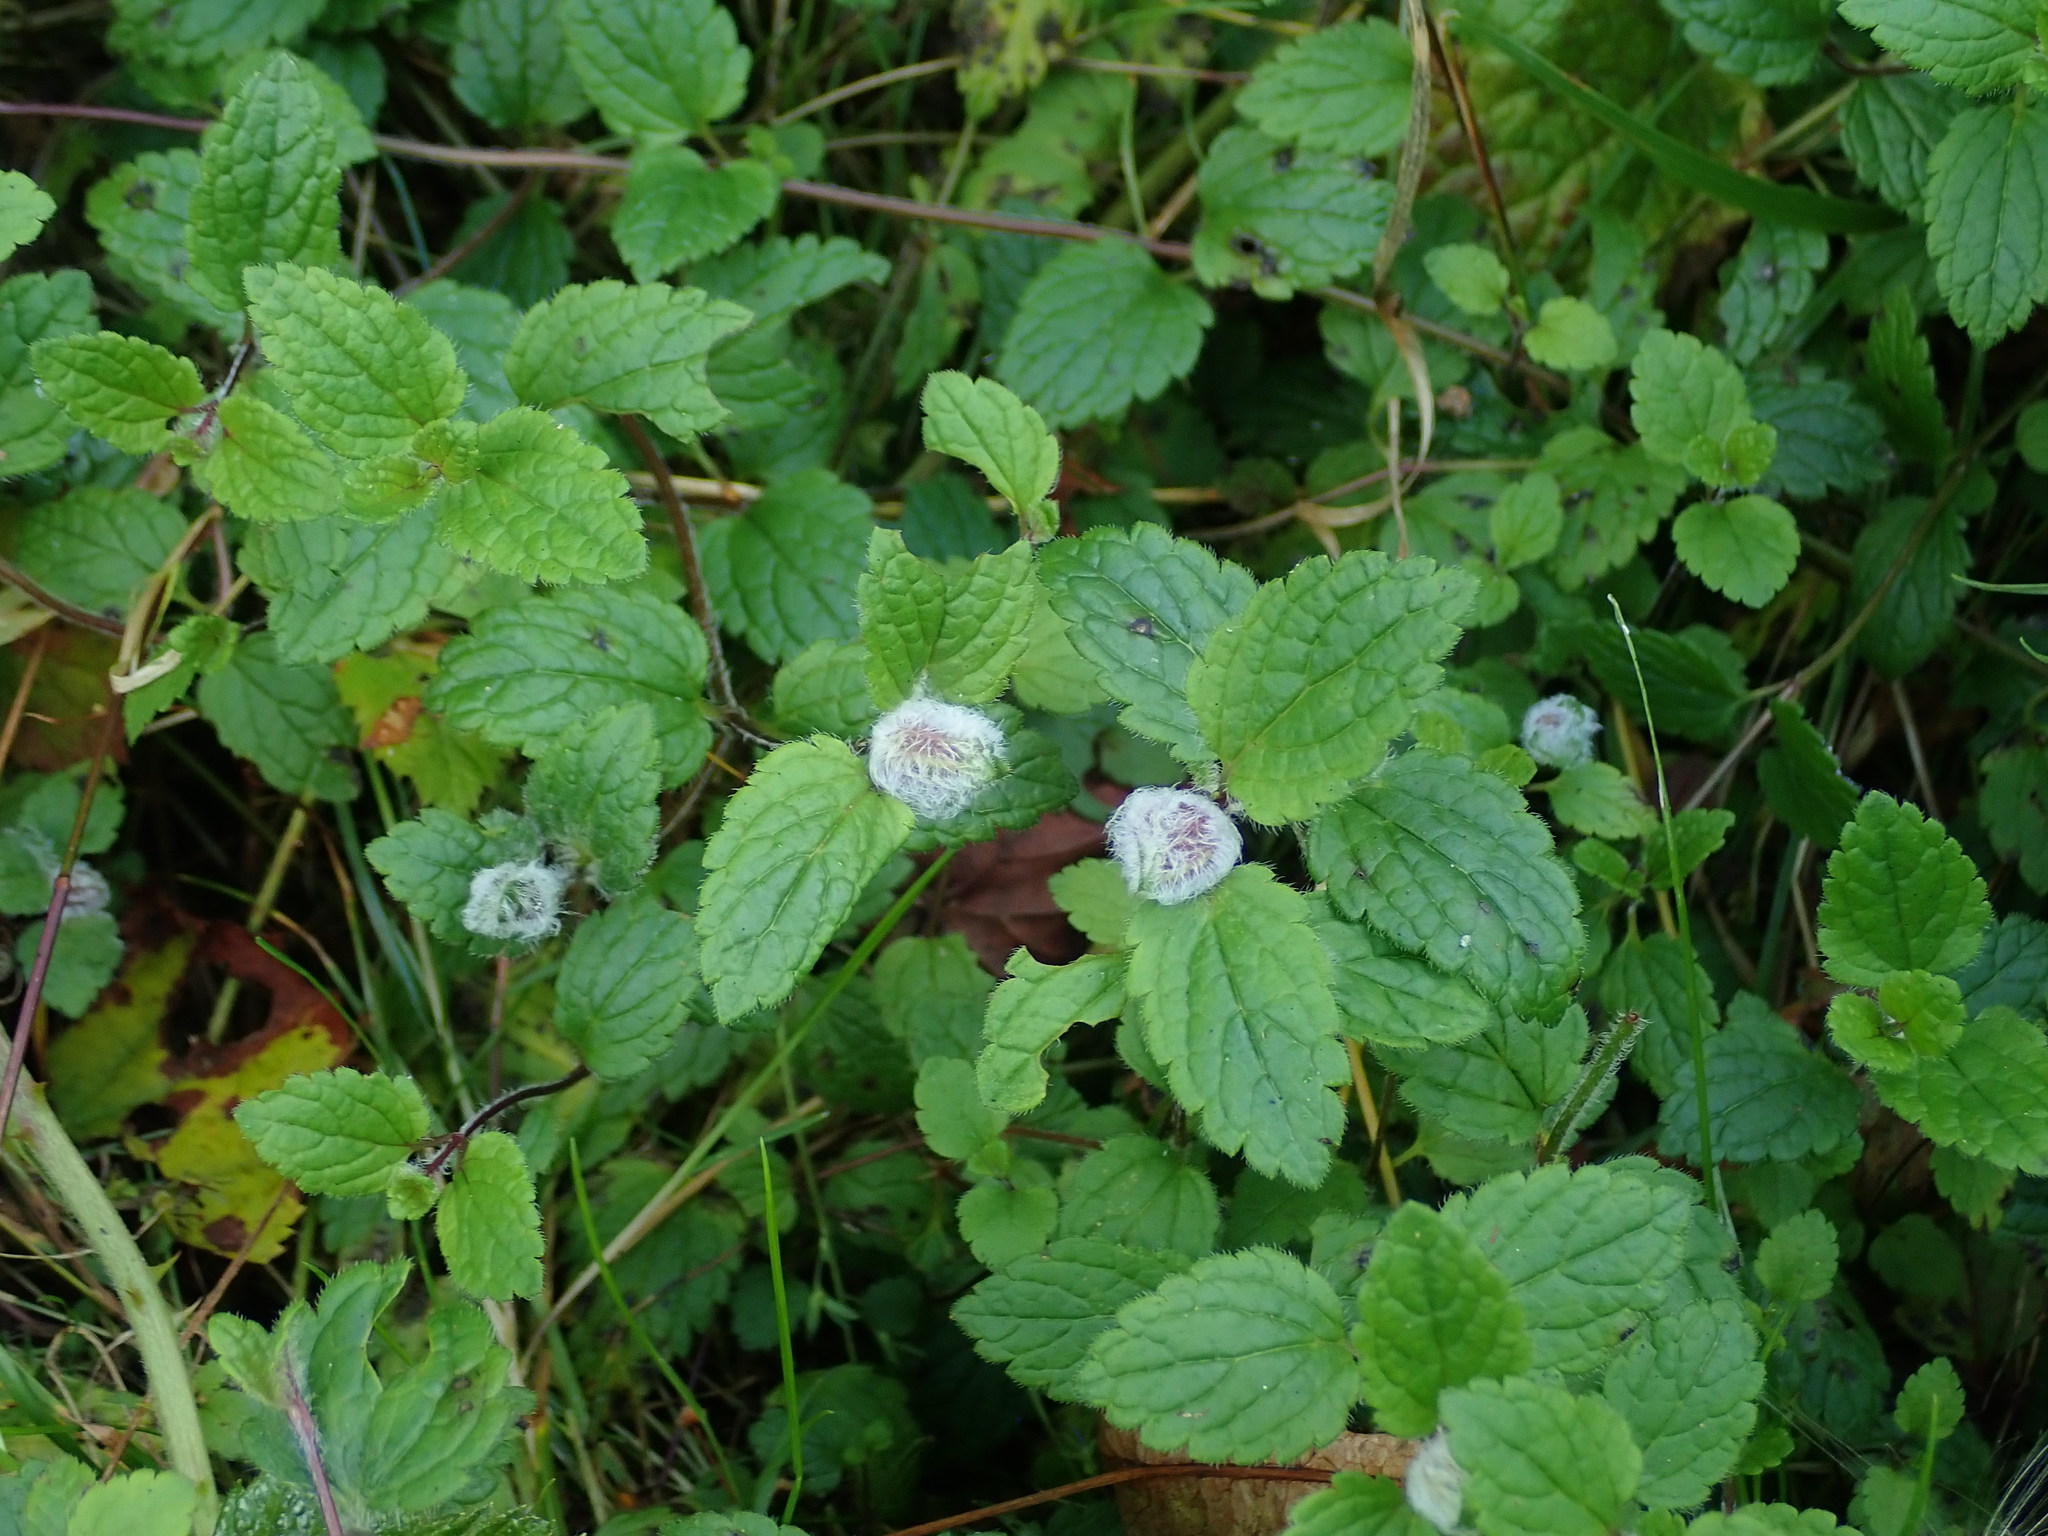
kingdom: Animalia
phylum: Arthropoda
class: Insecta
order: Diptera
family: Cecidomyiidae
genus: Jaapiella
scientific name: Jaapiella veronicae
